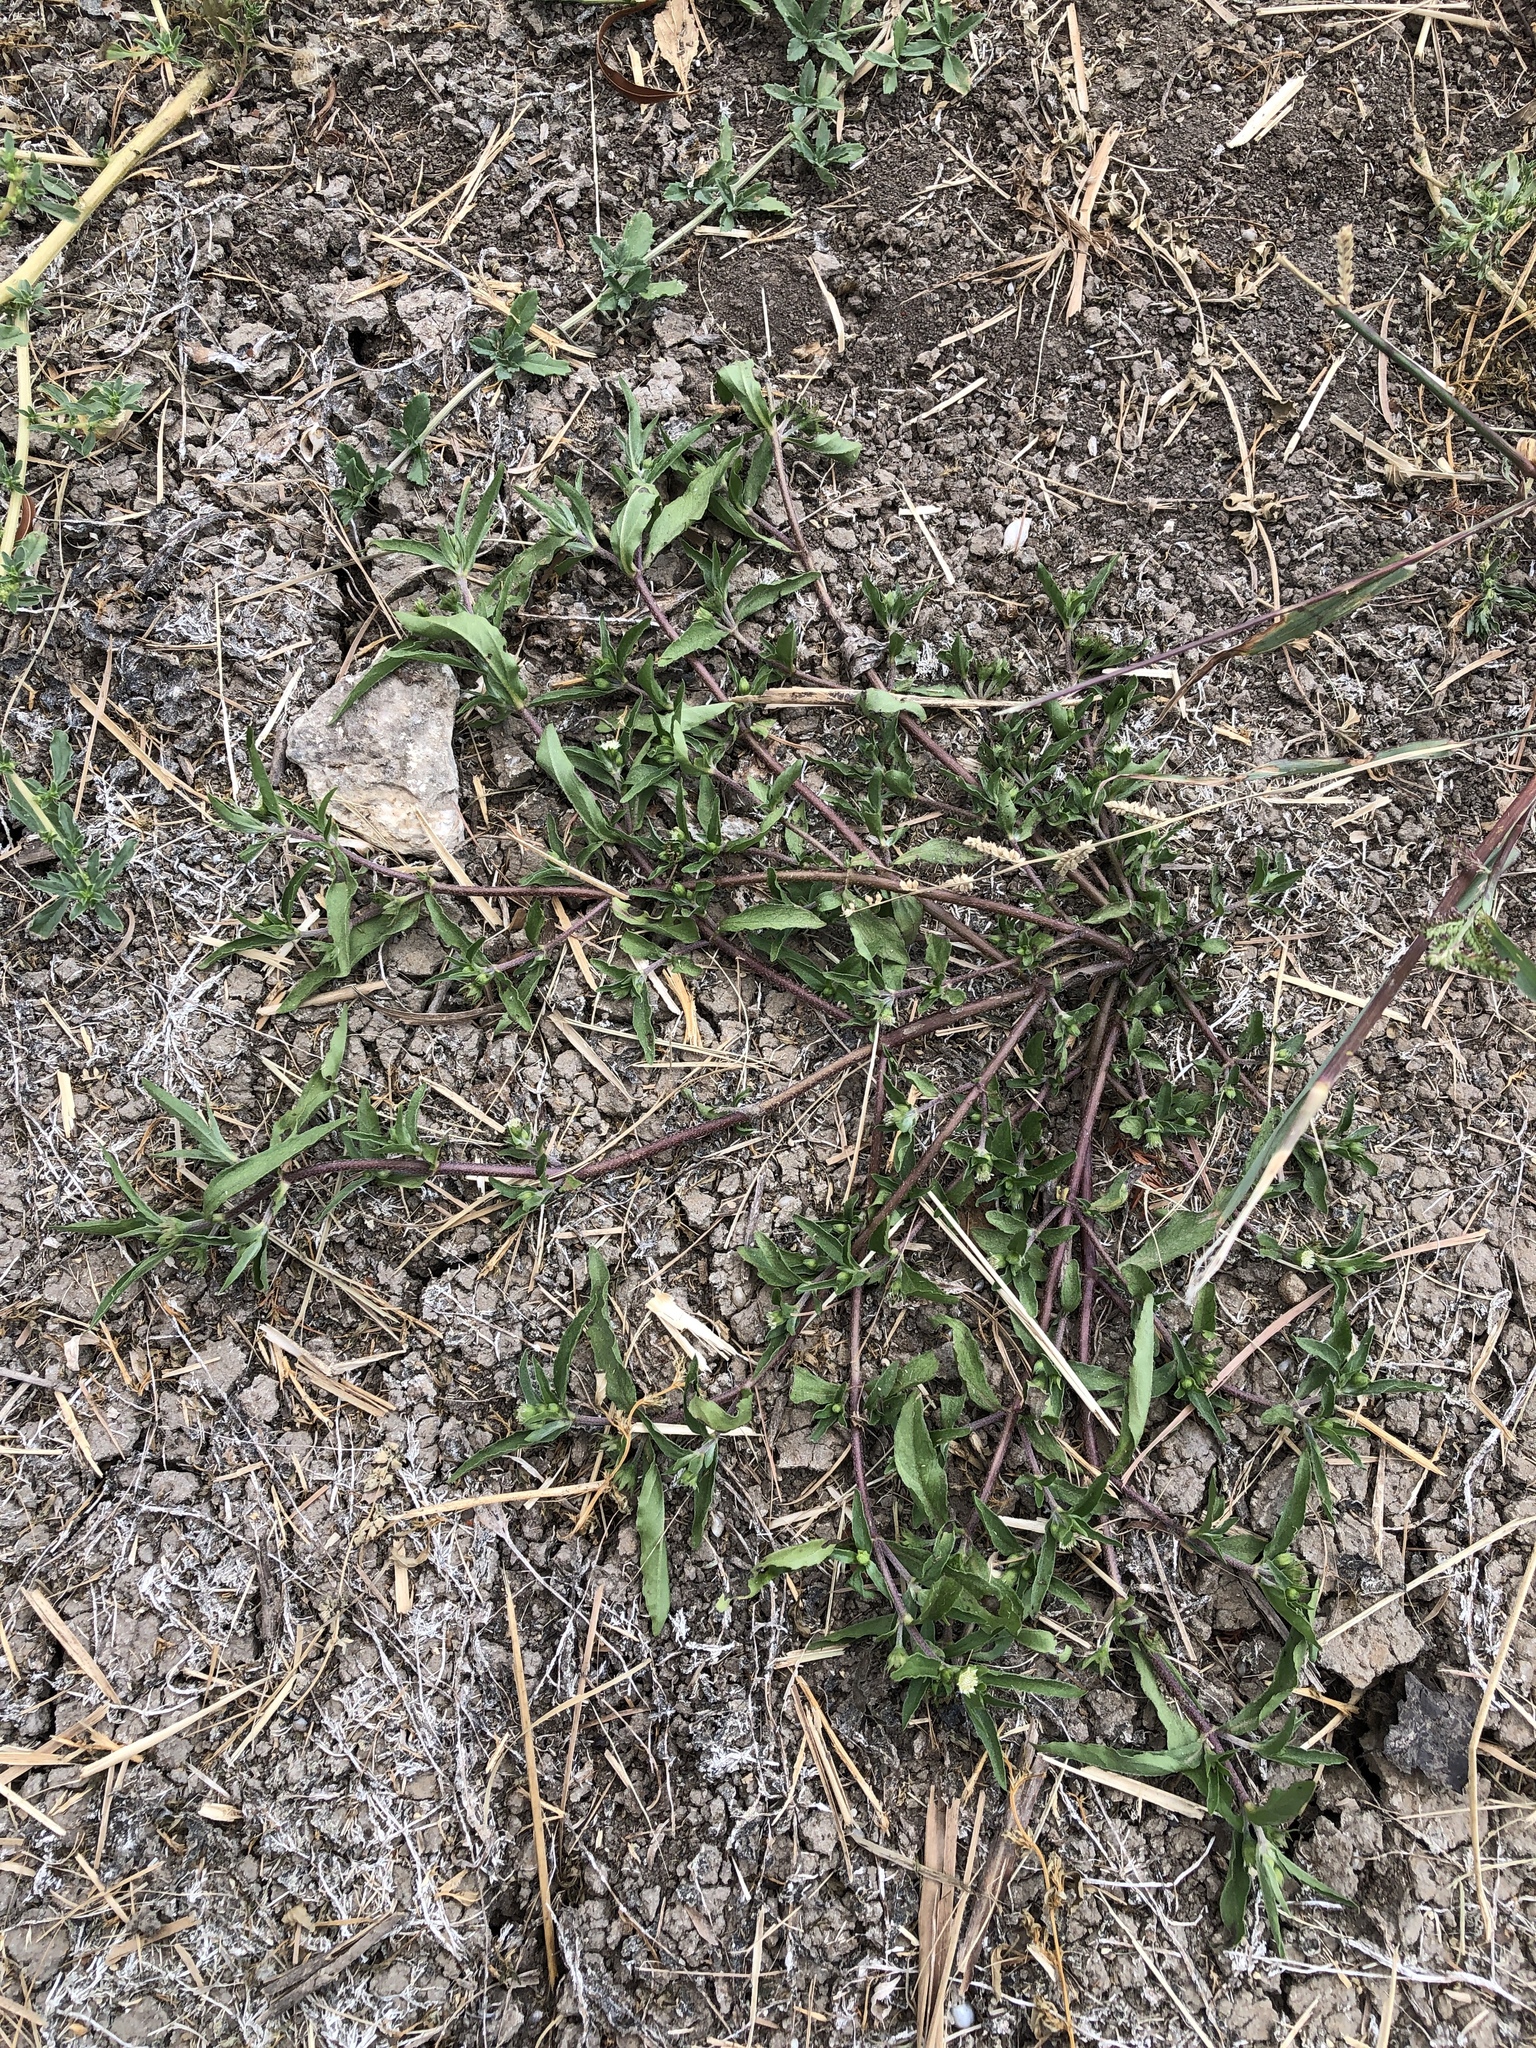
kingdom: Plantae
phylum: Tracheophyta
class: Magnoliopsida
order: Asterales
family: Asteraceae
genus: Eclipta
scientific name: Eclipta prostrata
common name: False daisy
